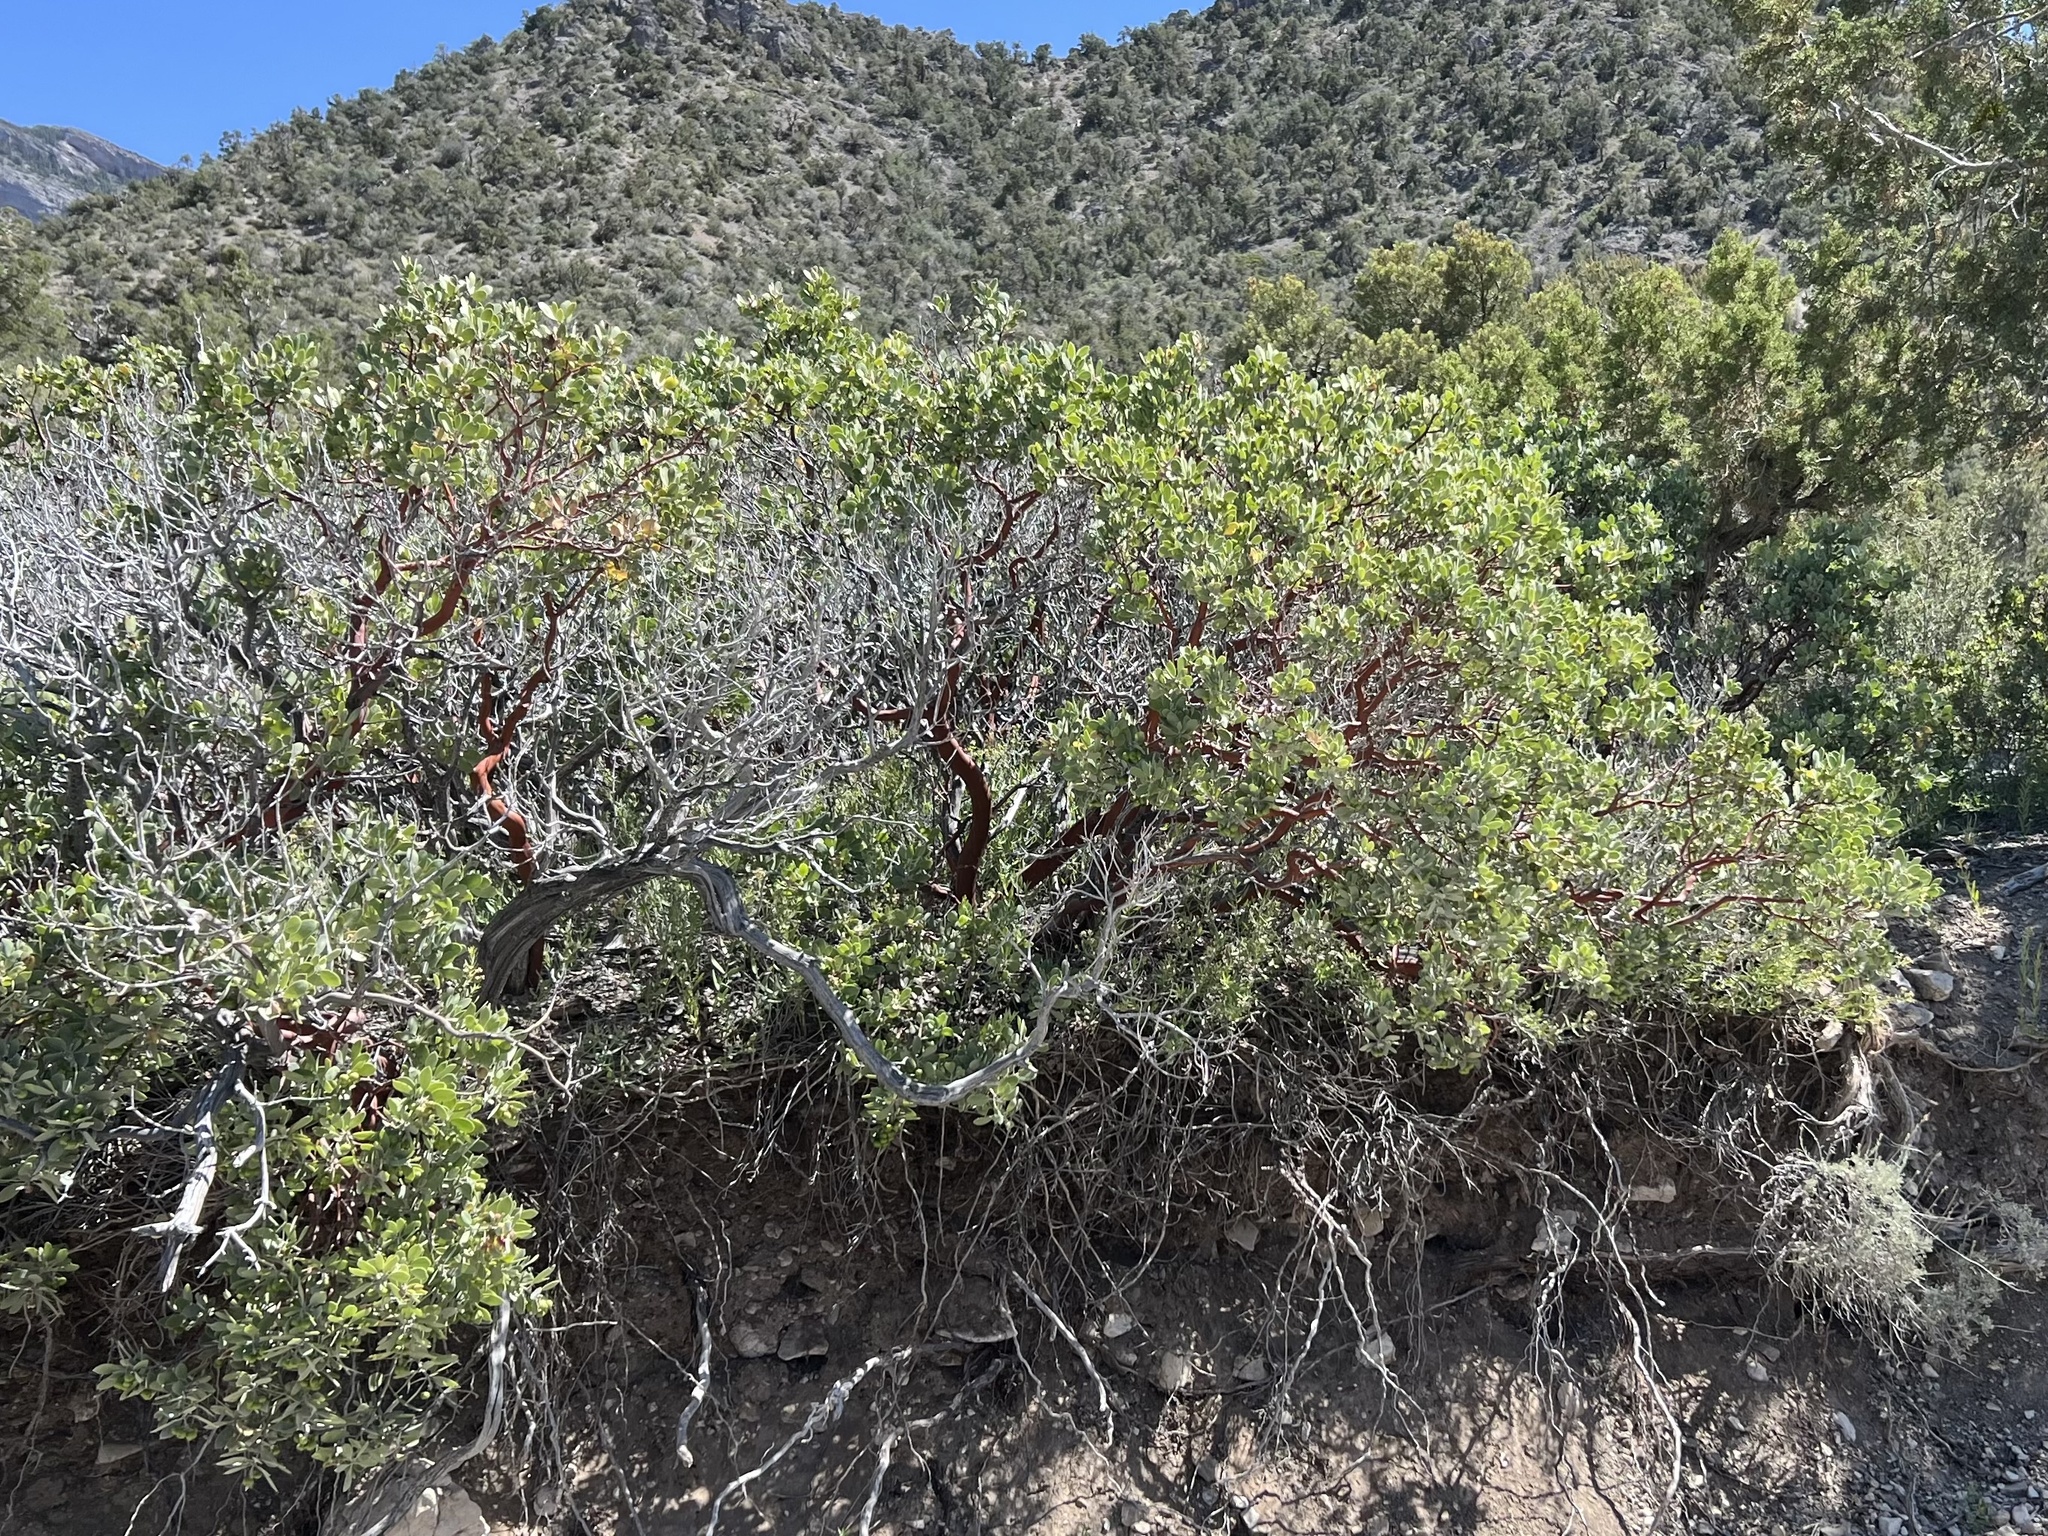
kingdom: Plantae
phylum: Tracheophyta
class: Magnoliopsida
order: Ericales
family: Ericaceae
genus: Arctostaphylos
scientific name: Arctostaphylos pungens
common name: Mexican manzanita
